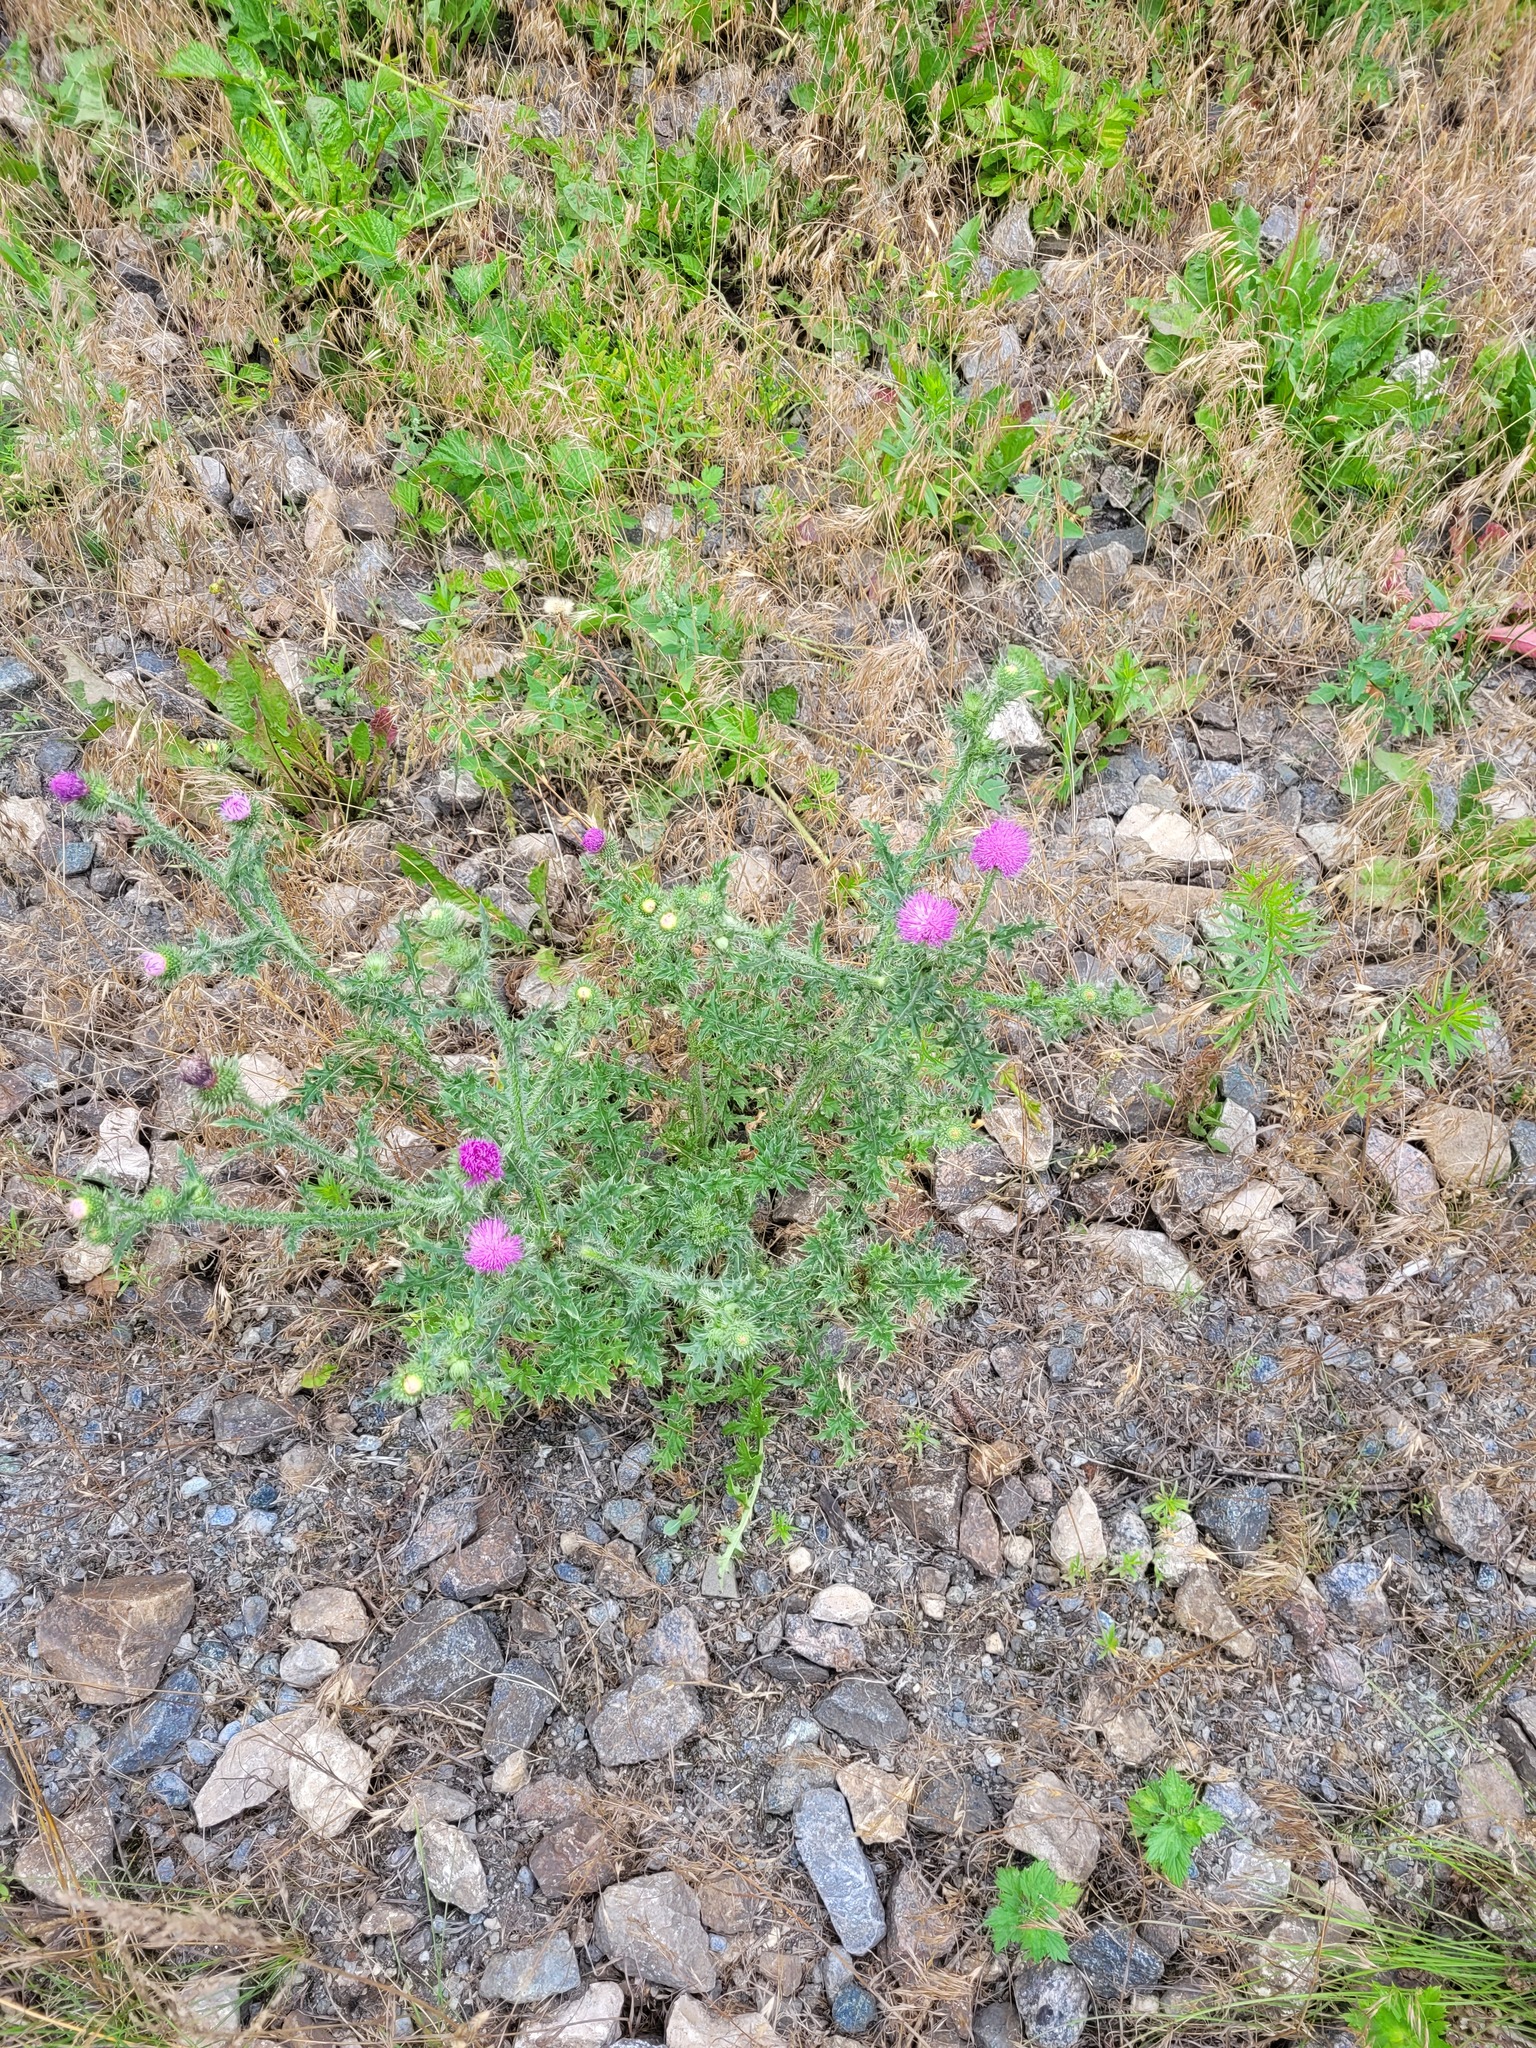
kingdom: Plantae
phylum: Tracheophyta
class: Magnoliopsida
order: Asterales
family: Asteraceae
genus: Carduus
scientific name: Carduus acanthoides
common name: Plumeless thistle
